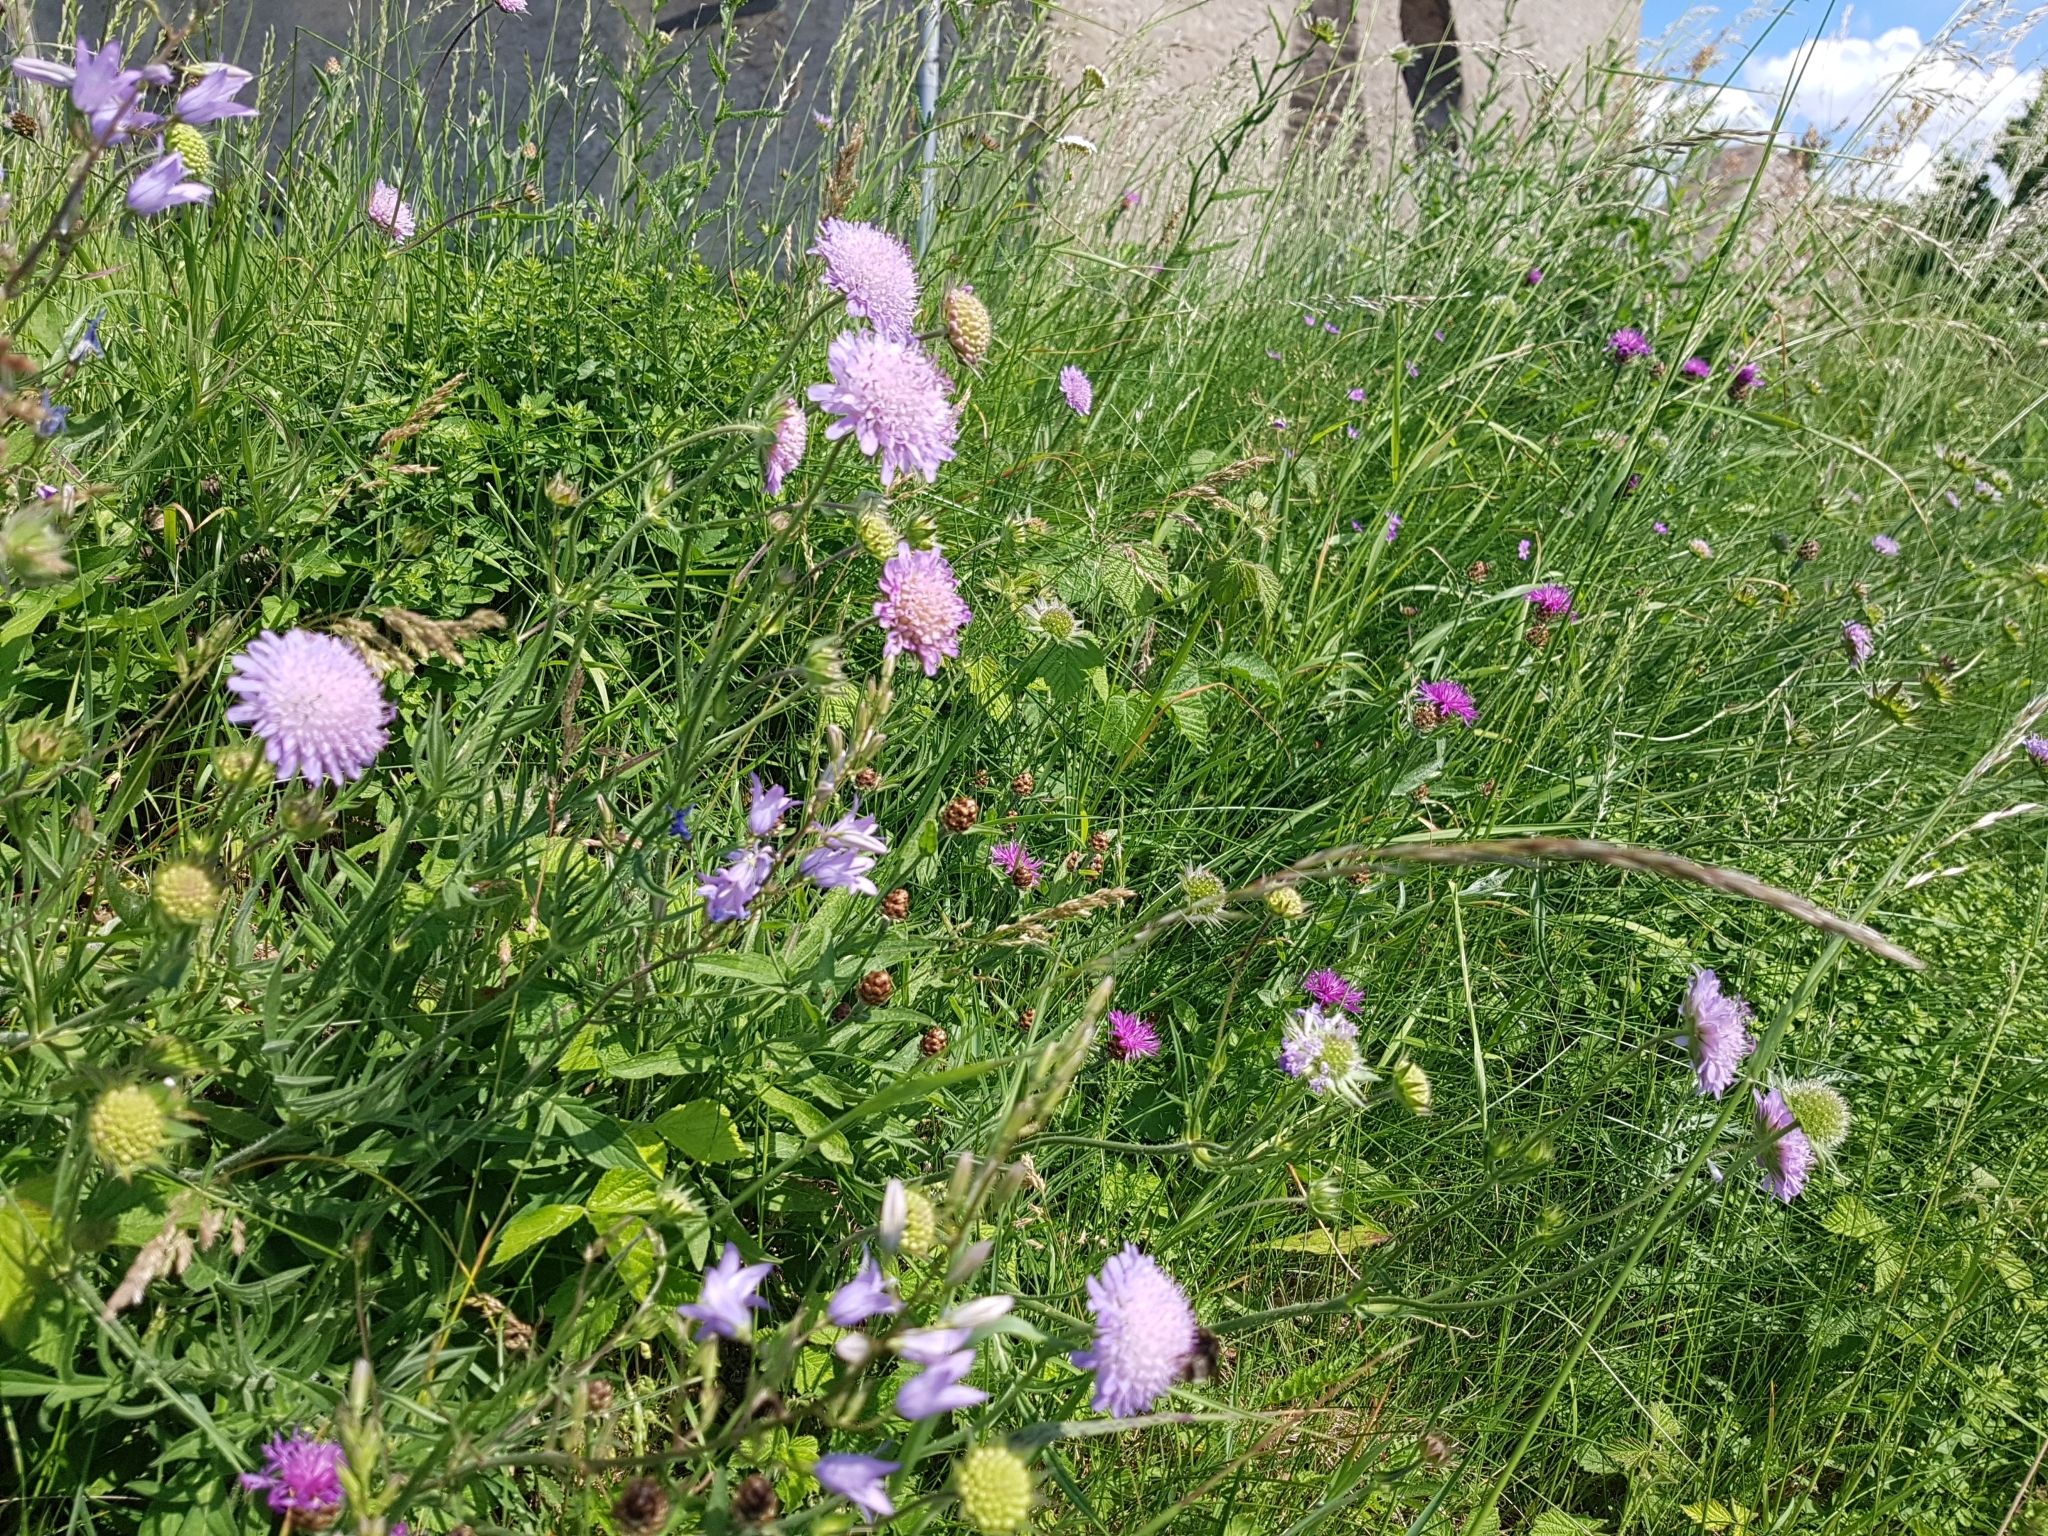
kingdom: Plantae
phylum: Tracheophyta
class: Magnoliopsida
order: Dipsacales
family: Caprifoliaceae
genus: Knautia
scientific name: Knautia arvensis
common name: Field scabiosa
